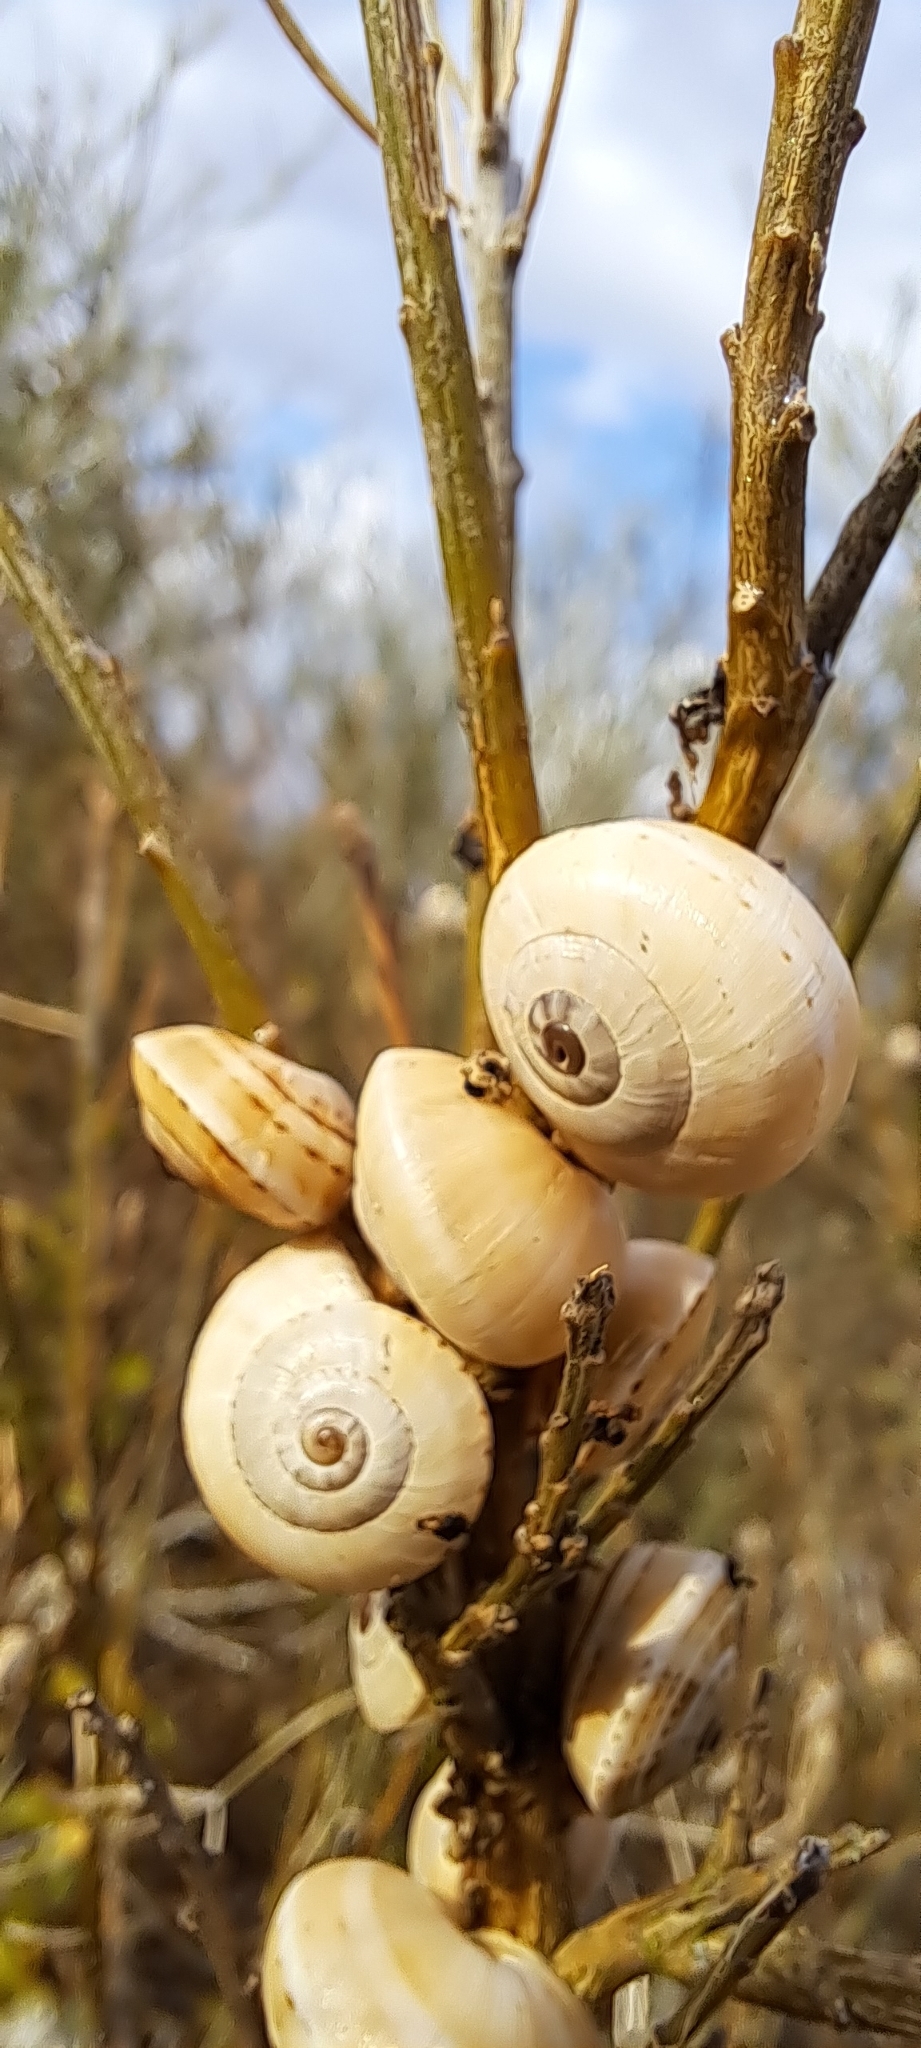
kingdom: Animalia
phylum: Mollusca
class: Gastropoda
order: Stylommatophora
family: Helicidae
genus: Theba
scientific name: Theba pisana
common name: White snail
